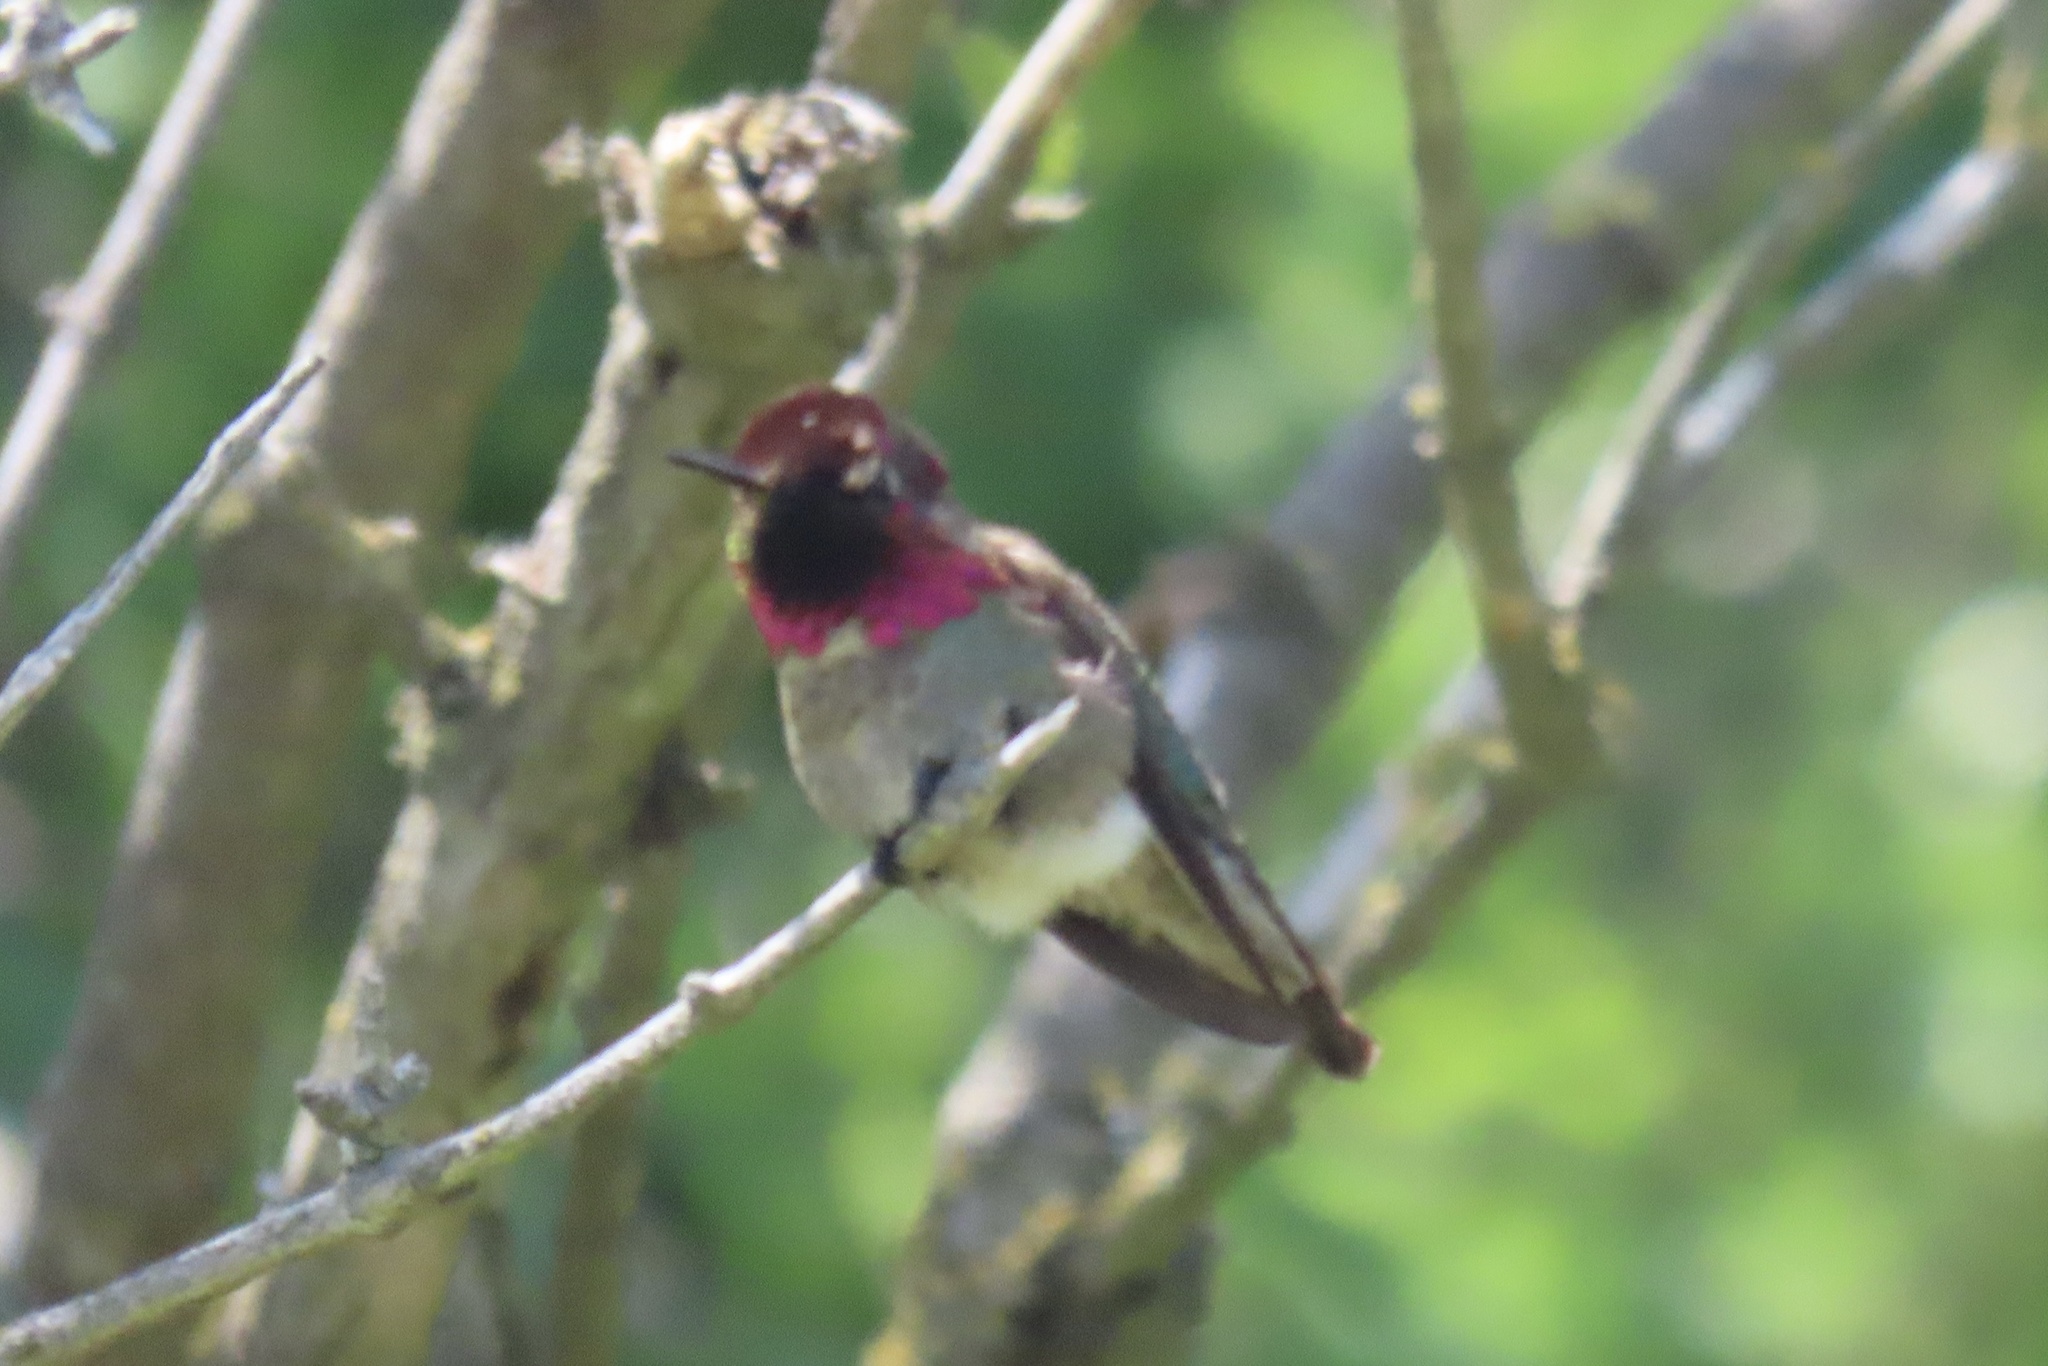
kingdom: Animalia
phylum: Chordata
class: Aves
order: Apodiformes
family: Trochilidae
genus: Calypte
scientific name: Calypte anna
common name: Anna's hummingbird
